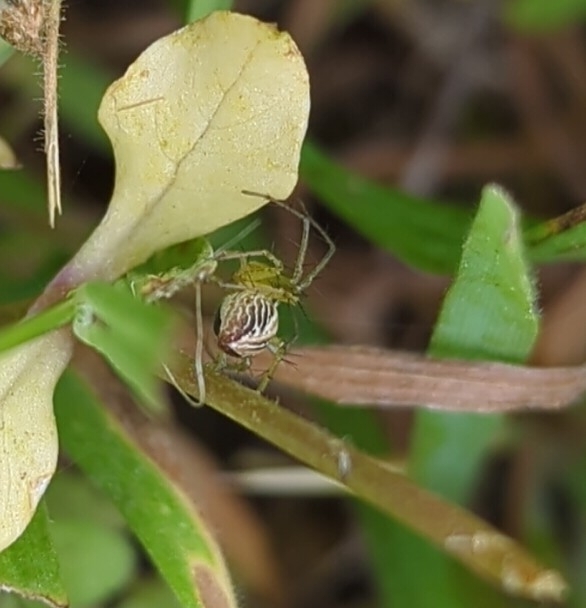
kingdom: Animalia
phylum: Arthropoda
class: Arachnida
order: Araneae
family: Oxyopidae
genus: Oxyopes
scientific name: Oxyopes salticus
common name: Lynx spiders
